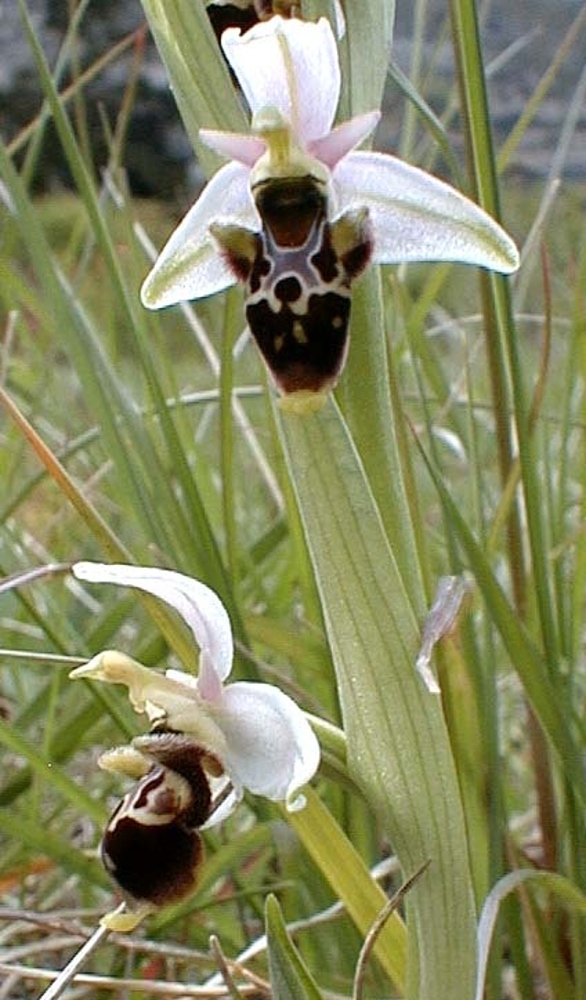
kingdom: Plantae
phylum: Tracheophyta
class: Liliopsida
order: Asparagales
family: Orchidaceae
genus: Ophrys
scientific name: Ophrys scolopax
